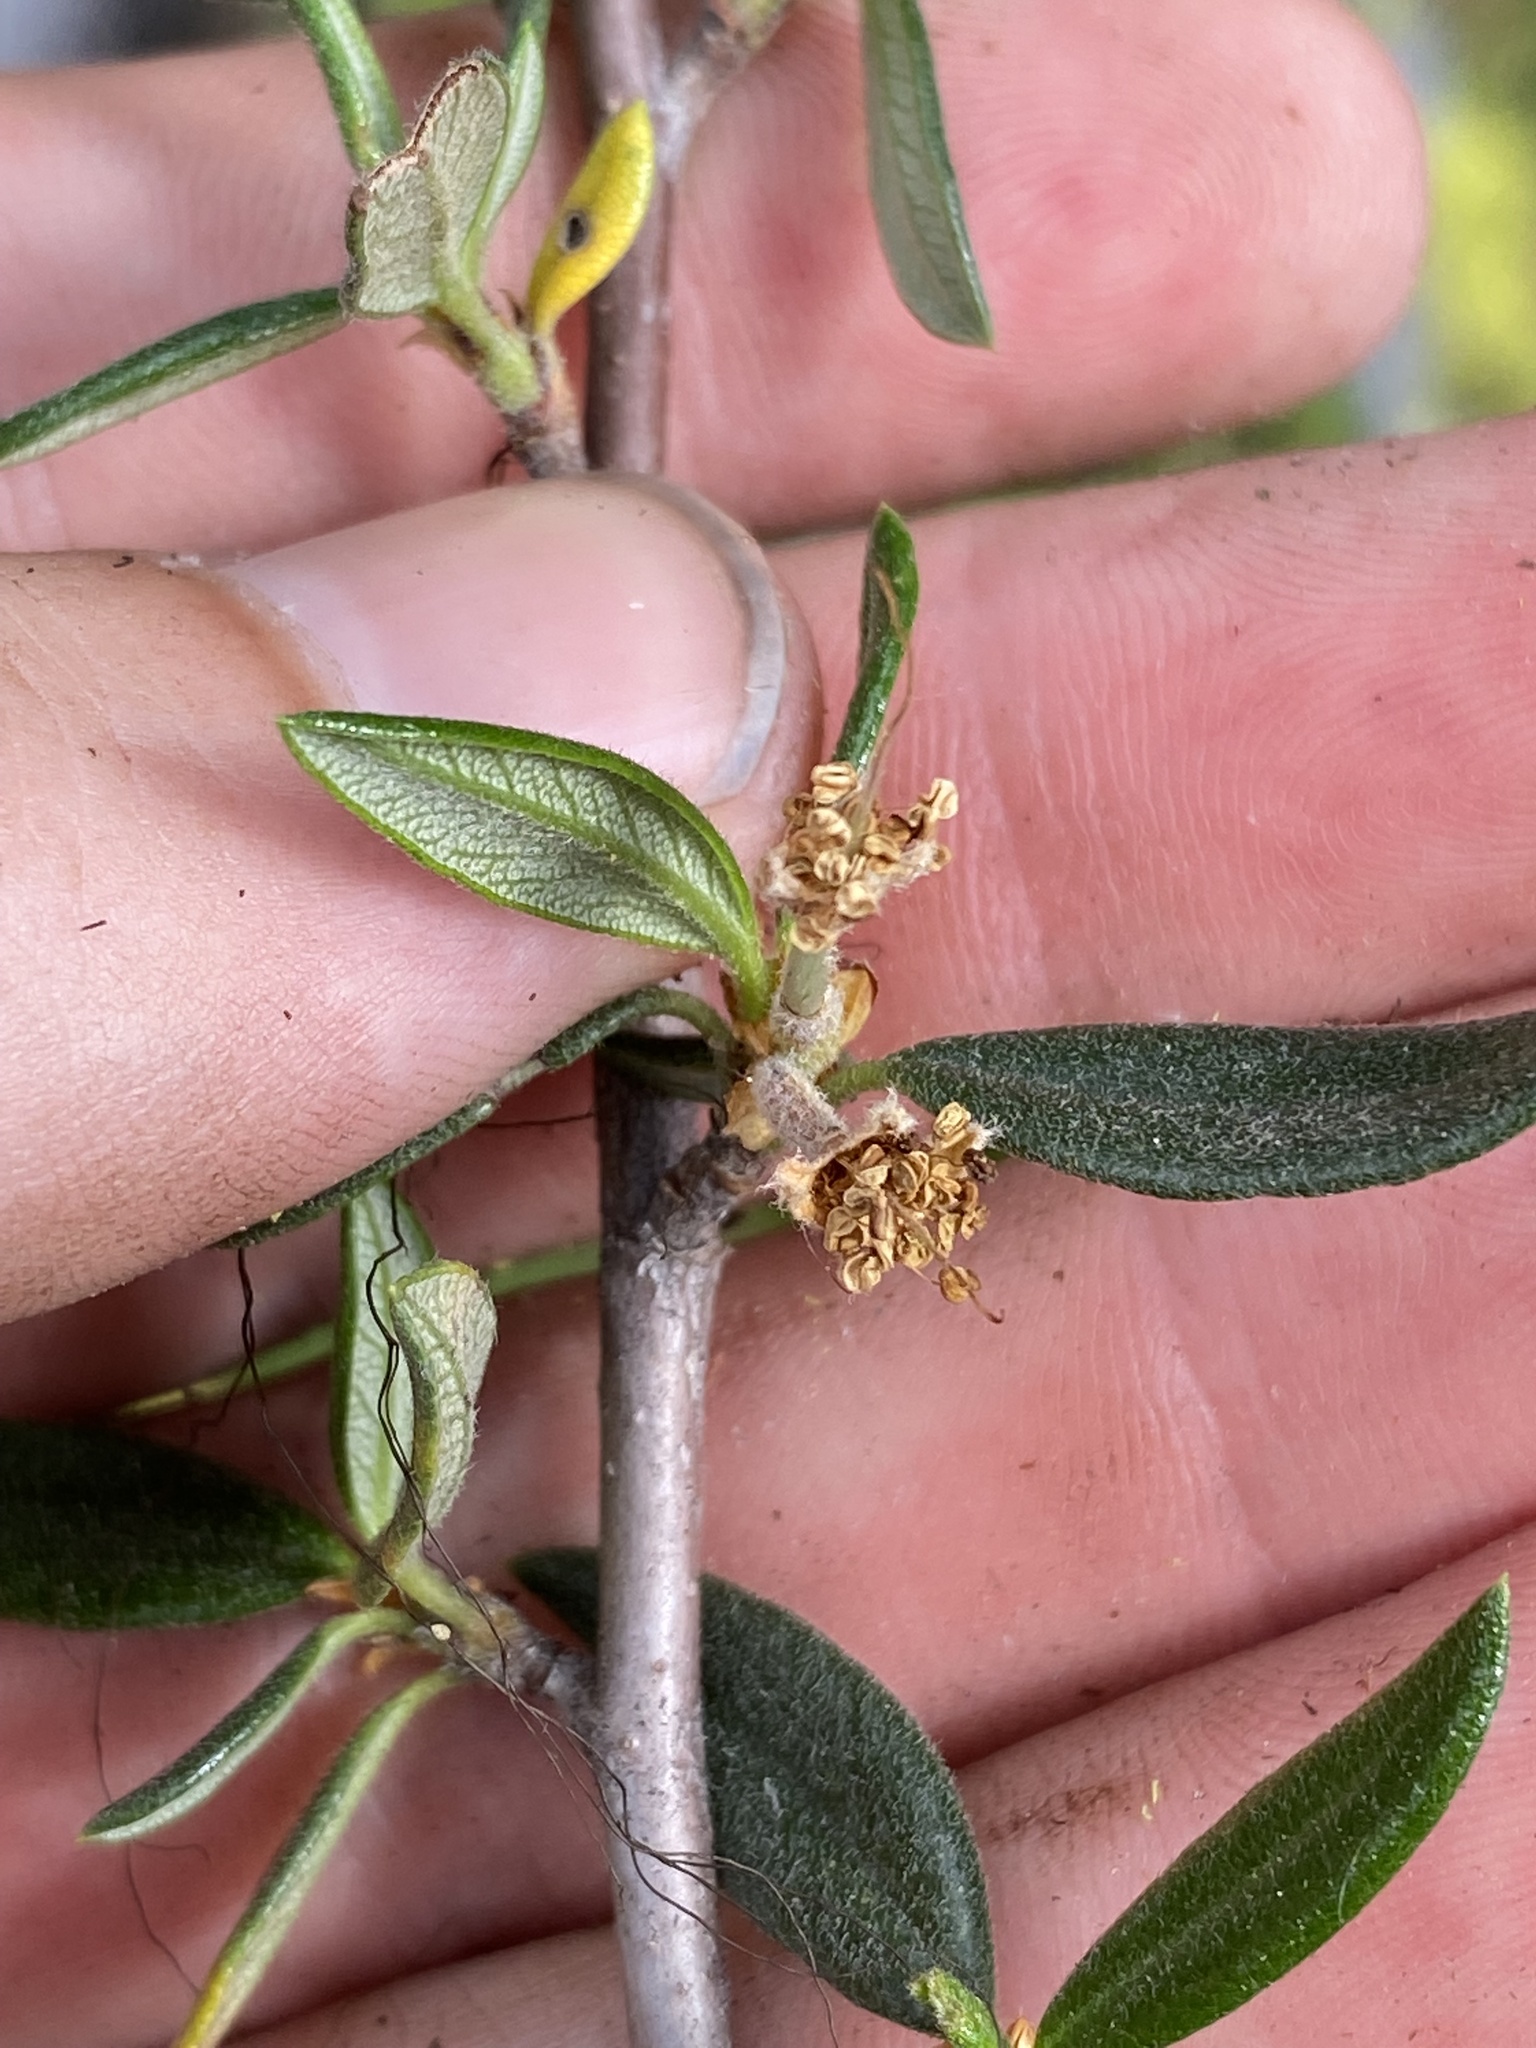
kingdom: Plantae
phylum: Tracheophyta
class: Magnoliopsida
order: Rosales
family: Rosaceae
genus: Cercocarpus
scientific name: Cercocarpus ledifolius
